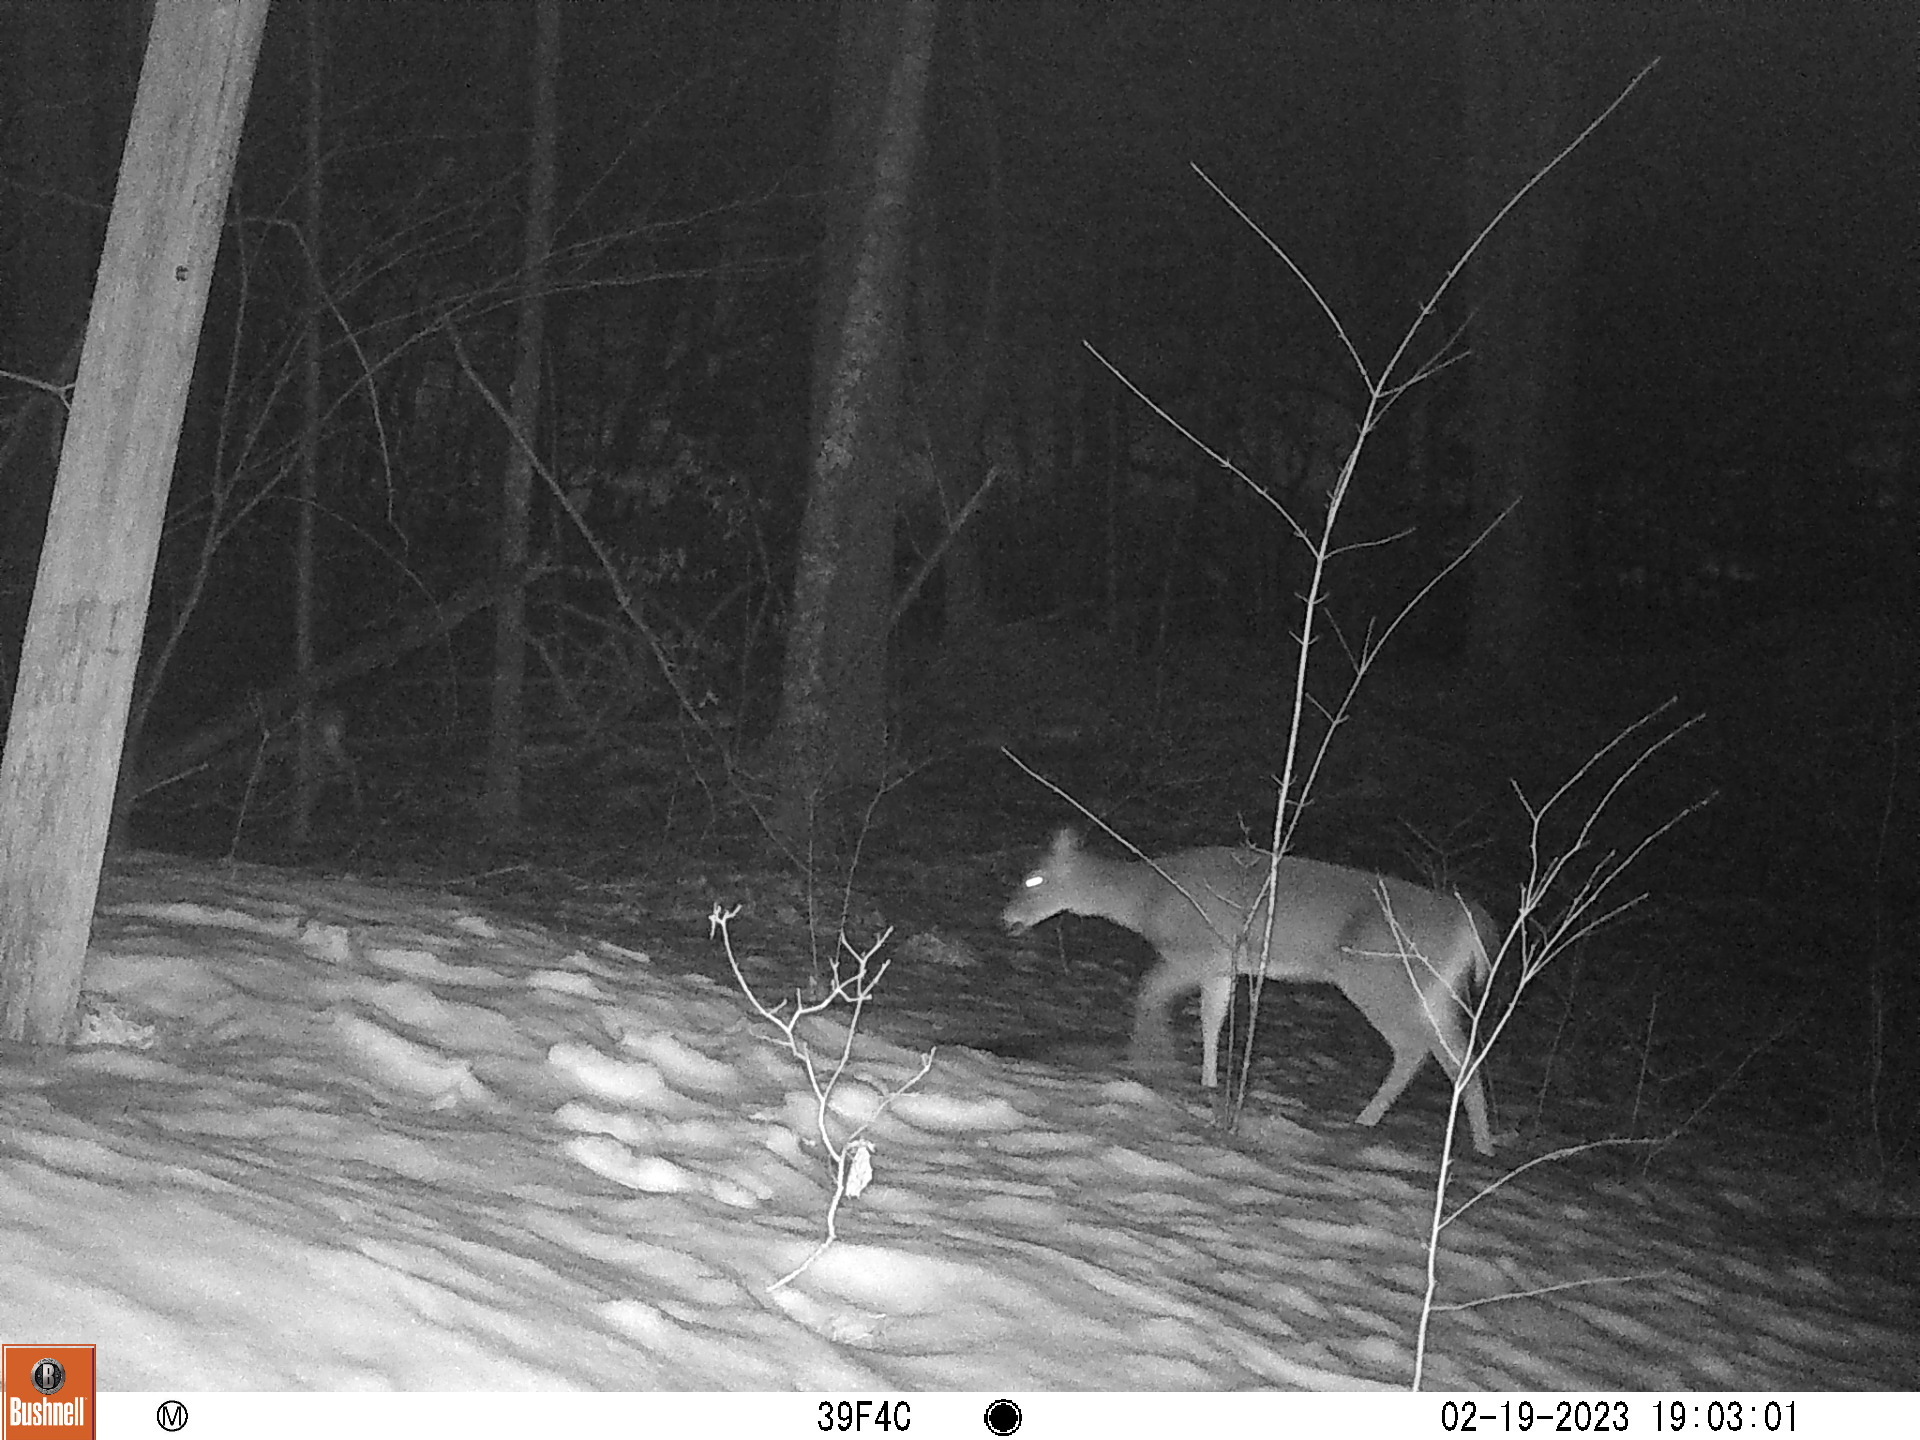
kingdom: Animalia
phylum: Chordata
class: Mammalia
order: Artiodactyla
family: Cervidae
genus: Odocoileus
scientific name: Odocoileus virginianus
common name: White-tailed deer
